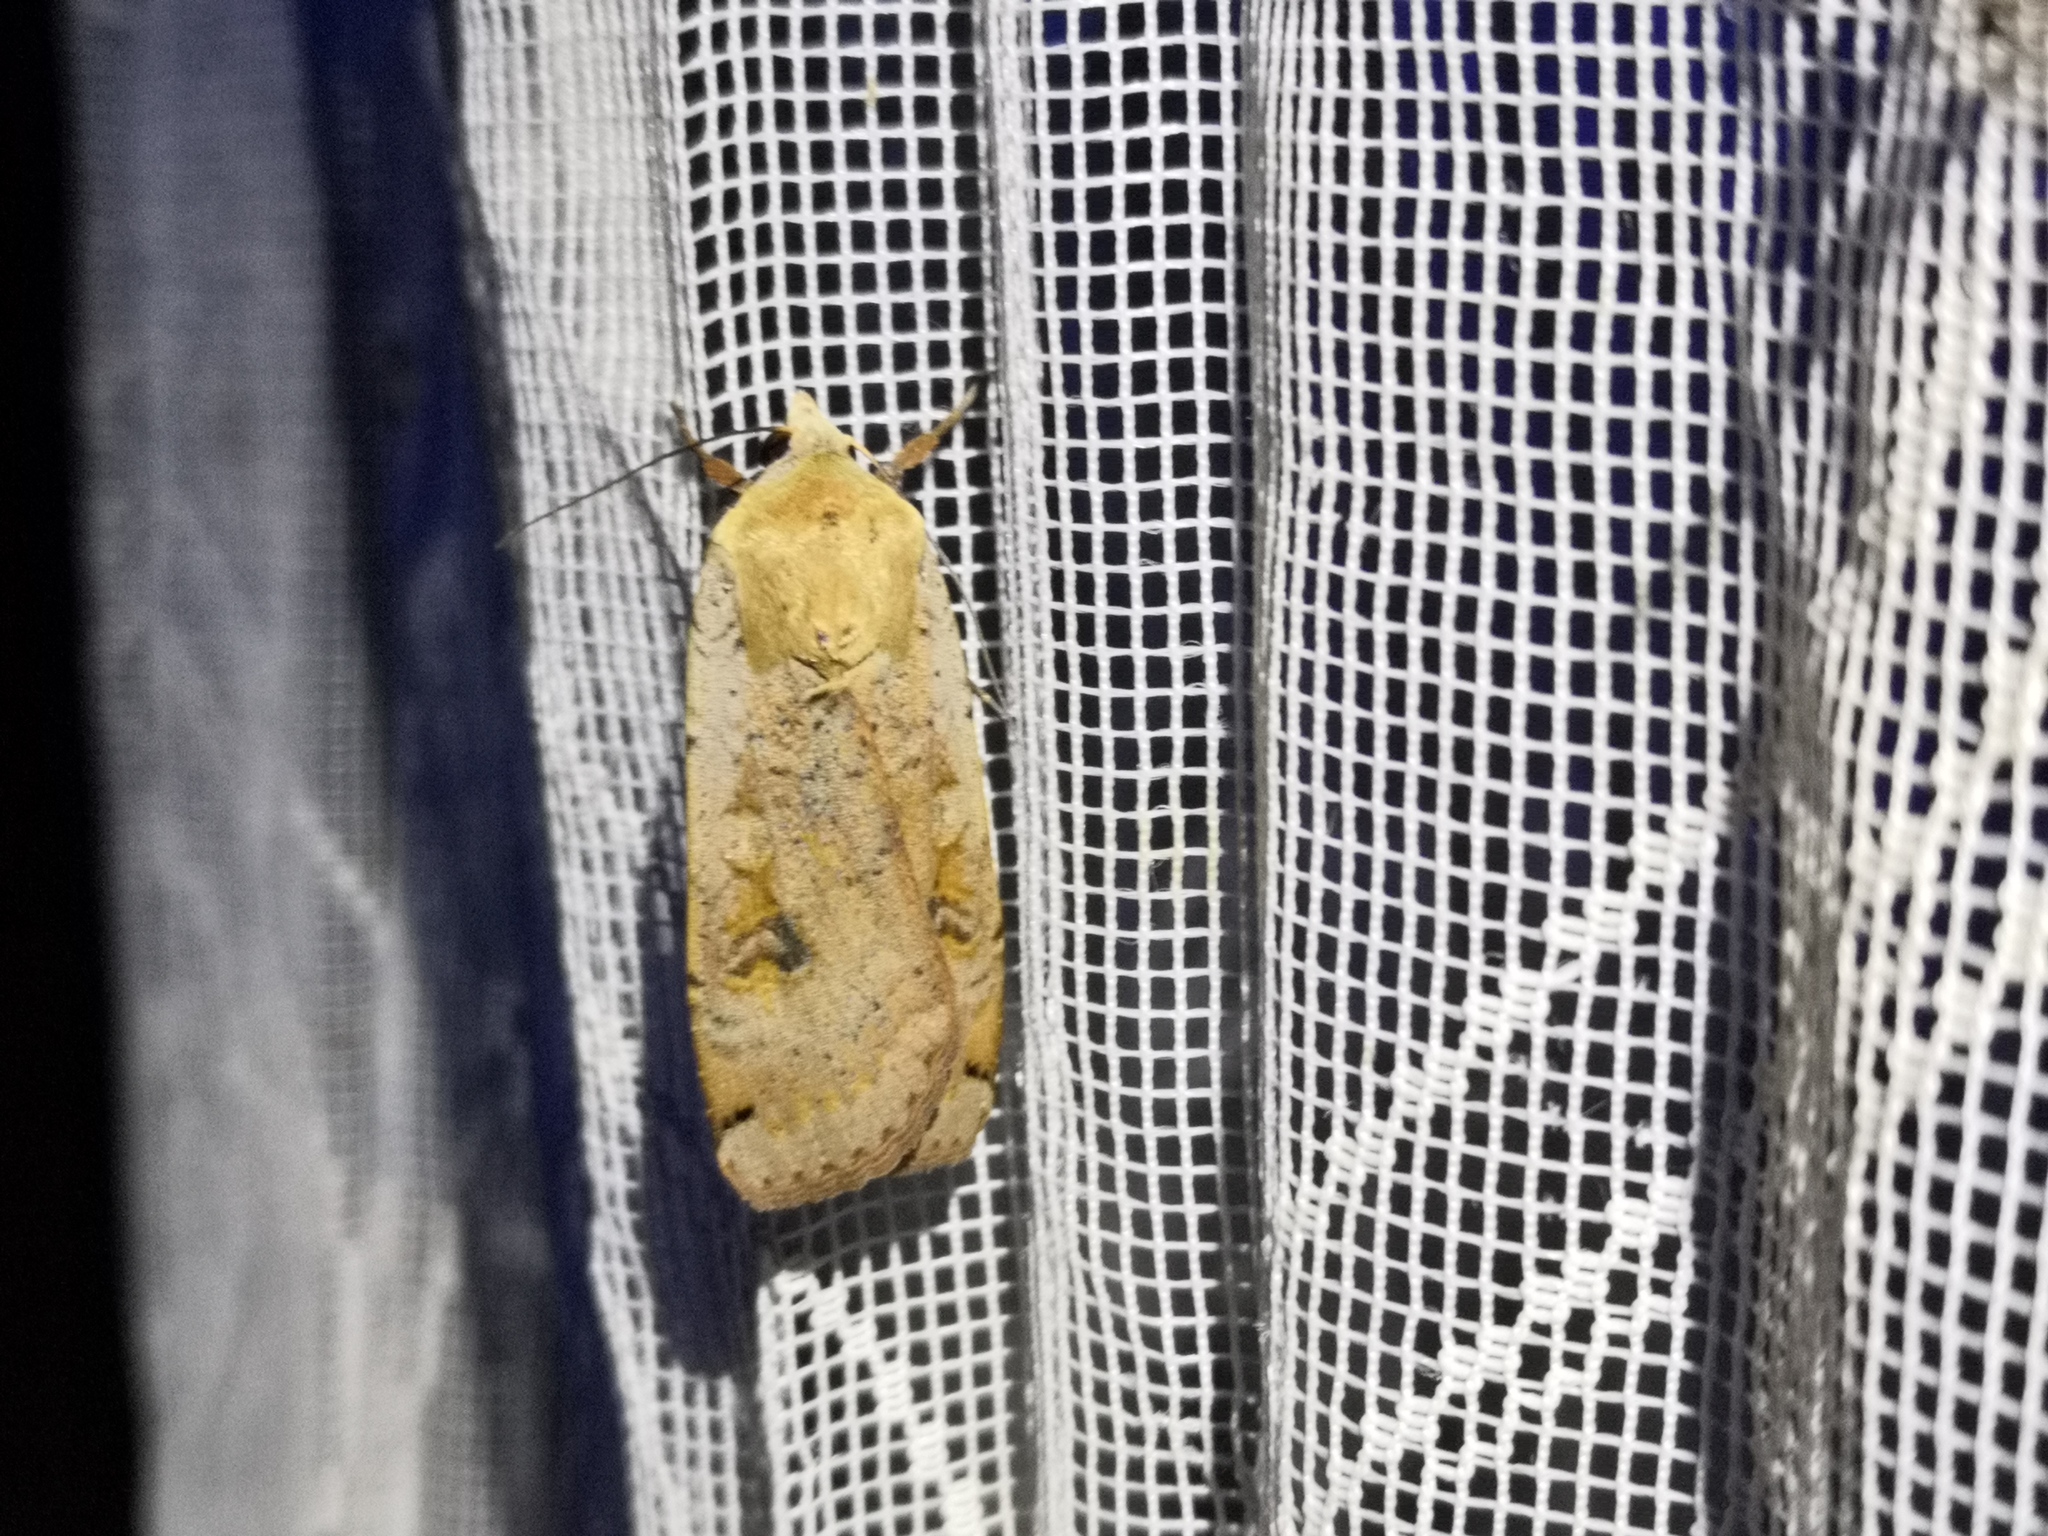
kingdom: Animalia
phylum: Arthropoda
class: Insecta
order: Lepidoptera
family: Noctuidae
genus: Noctua
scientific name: Noctua pronuba
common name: Large yellow underwing
